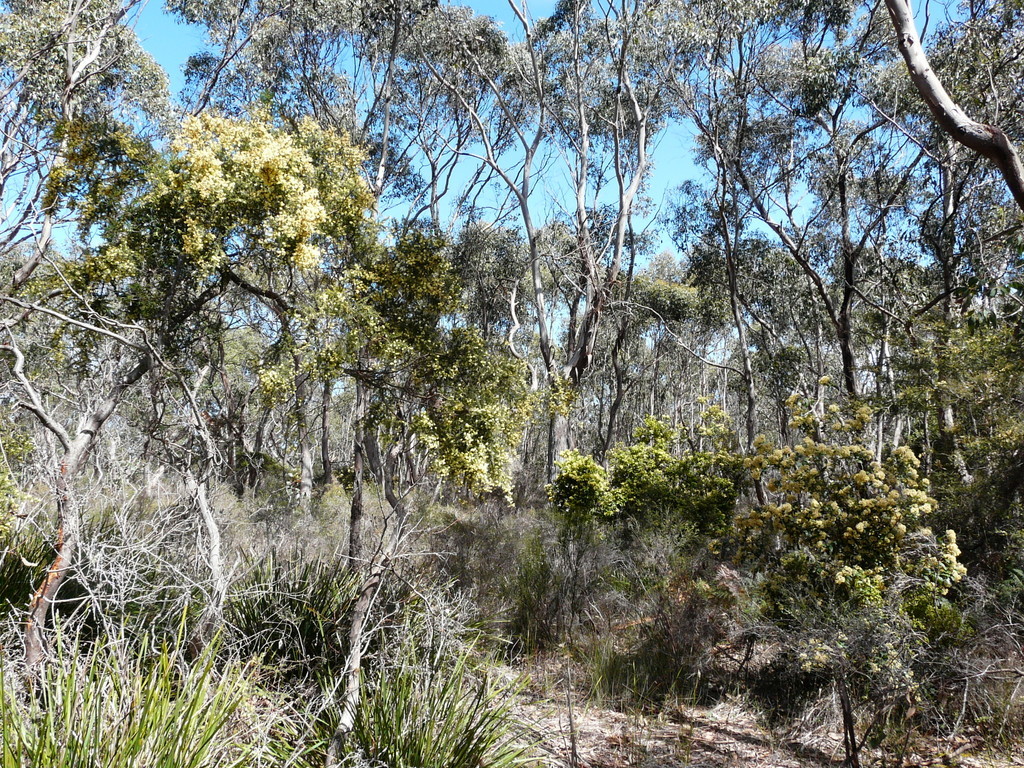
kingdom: Plantae
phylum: Tracheophyta
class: Magnoliopsida
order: Fabales
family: Fabaceae
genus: Acacia
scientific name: Acacia verticillata
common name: Prickly moses
